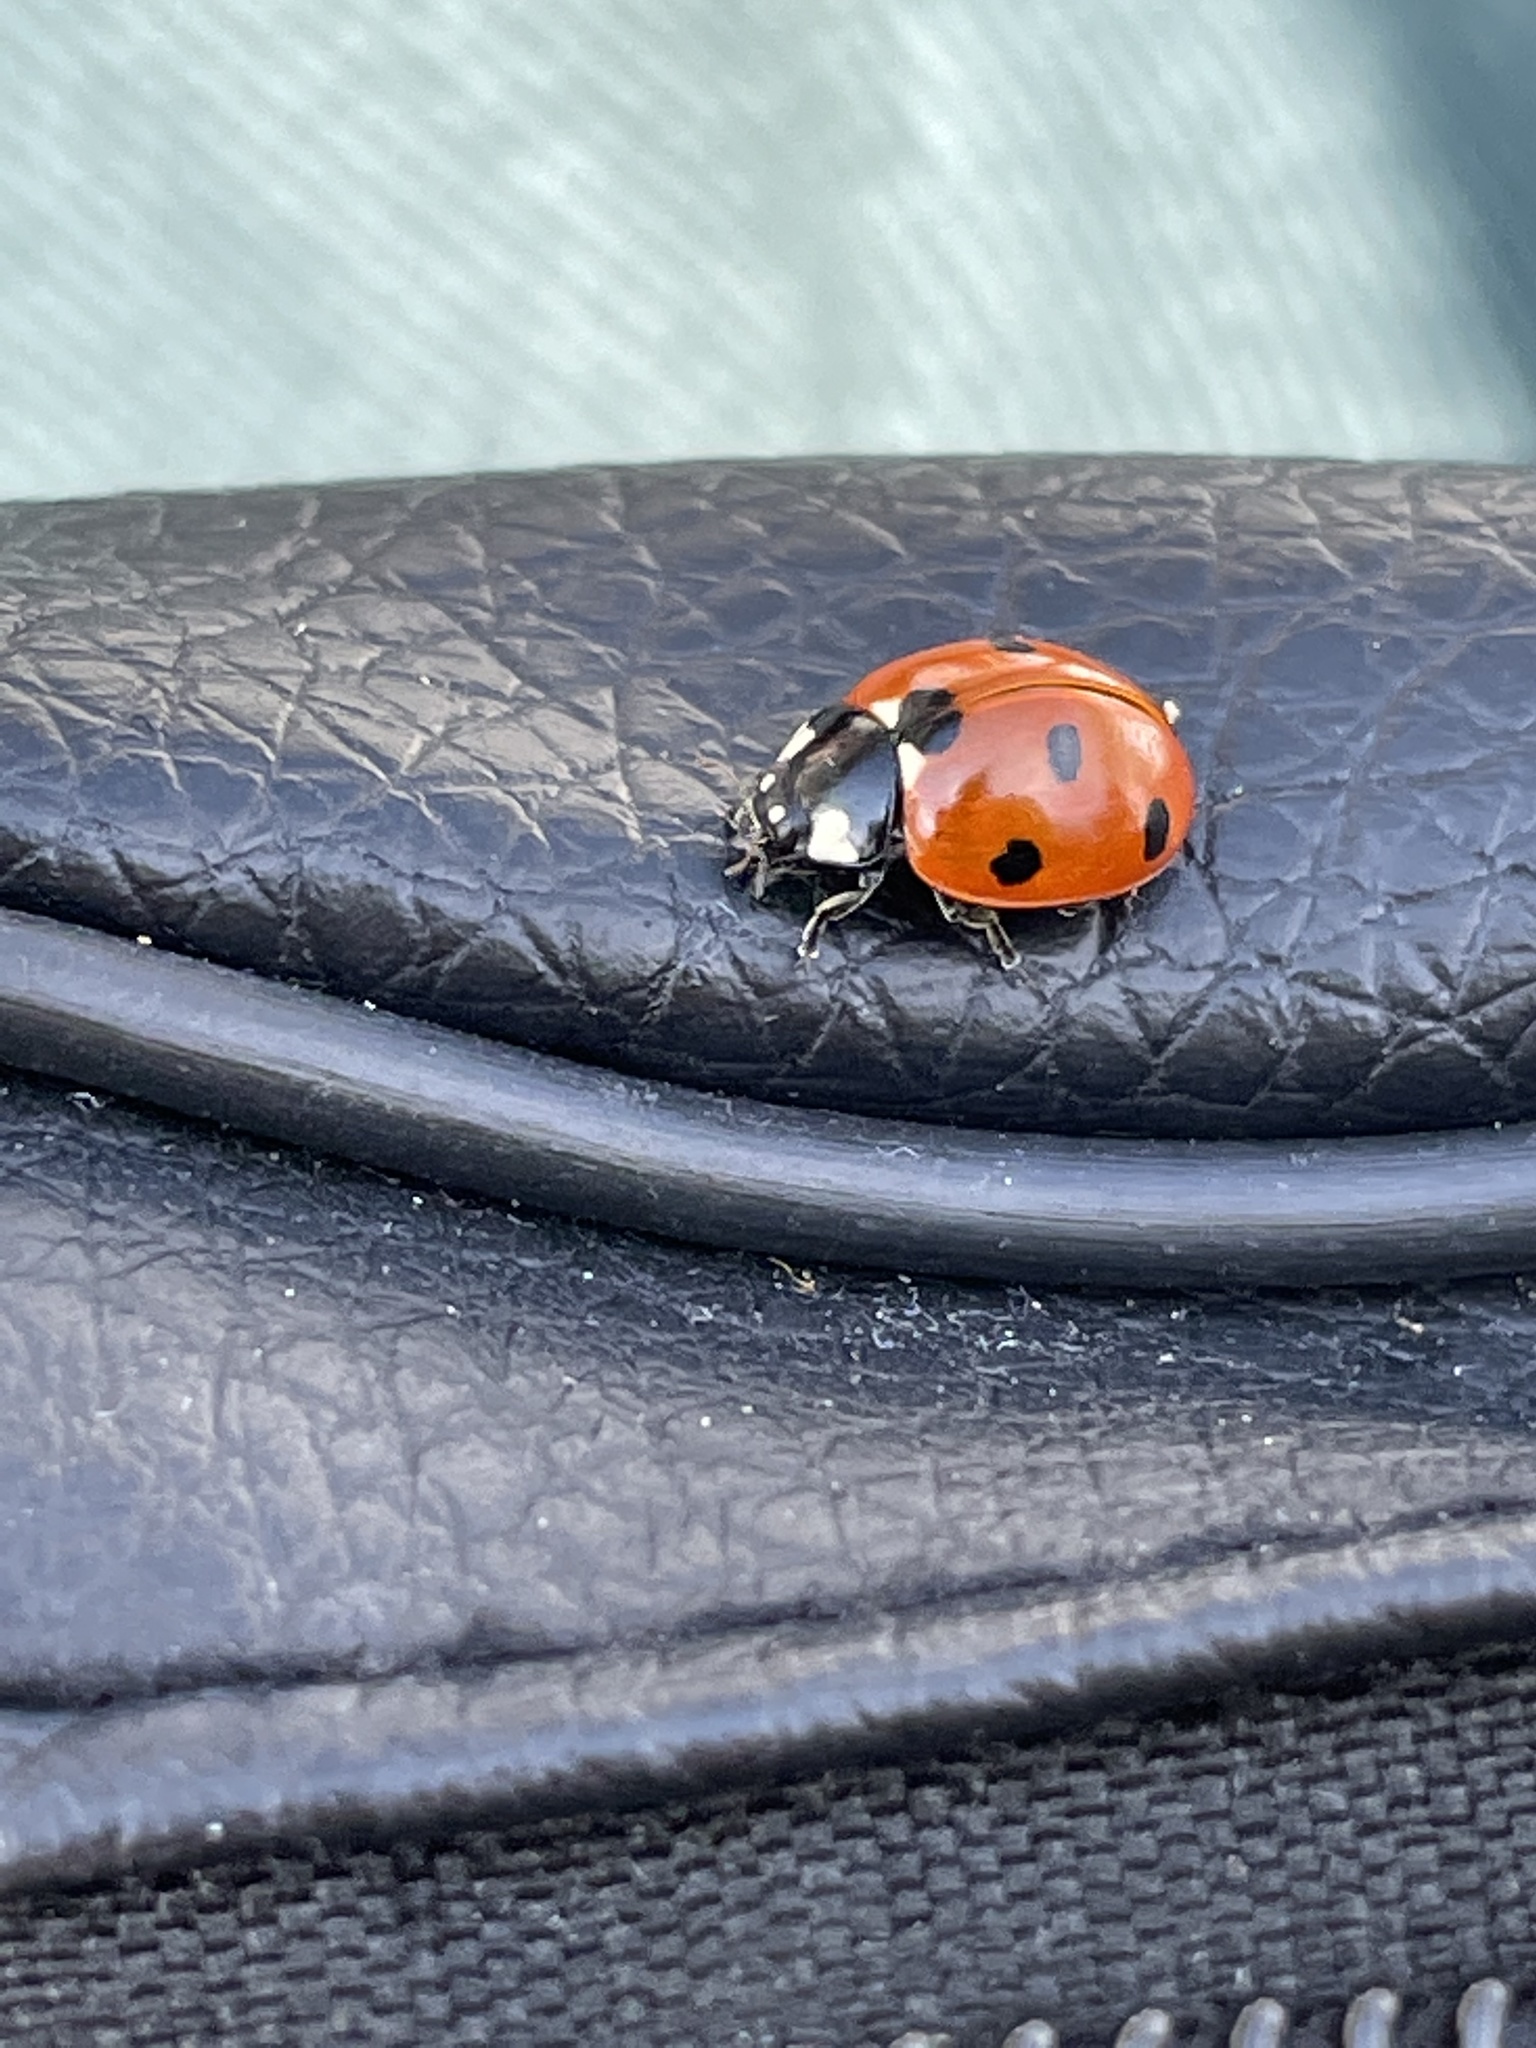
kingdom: Animalia
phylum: Arthropoda
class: Insecta
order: Coleoptera
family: Coccinellidae
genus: Coccinella
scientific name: Coccinella septempunctata
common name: Sevenspotted lady beetle
